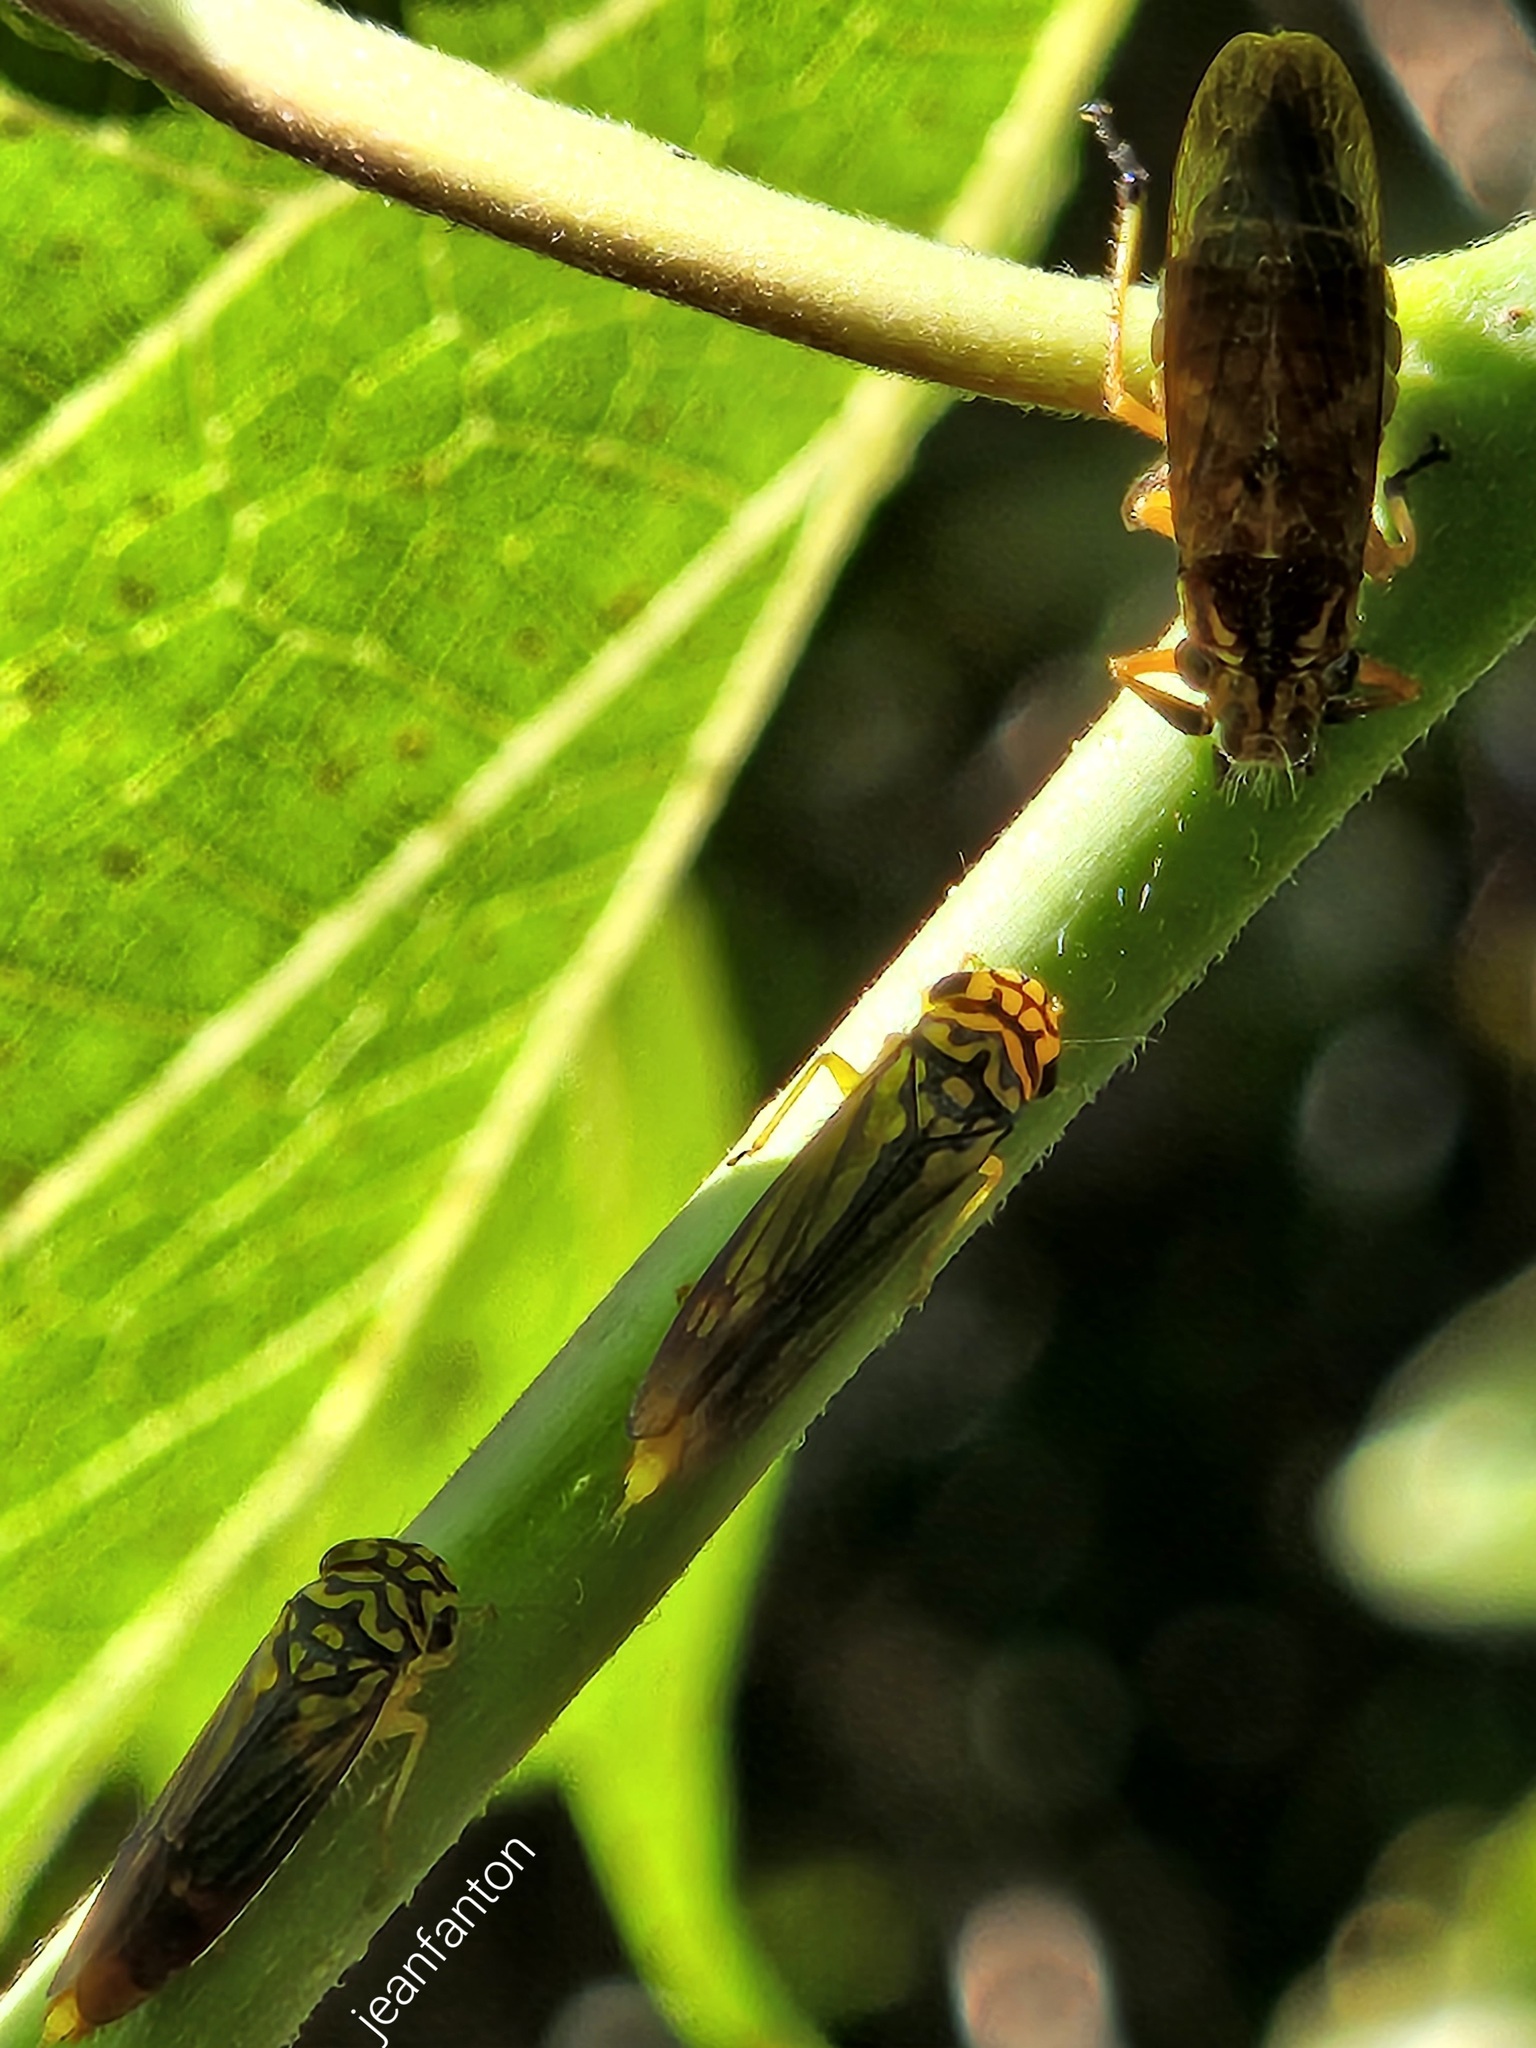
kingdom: Animalia
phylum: Arthropoda
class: Insecta
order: Hemiptera
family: Cicadellidae
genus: Dilobopterus
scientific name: Dilobopterus costalimai
